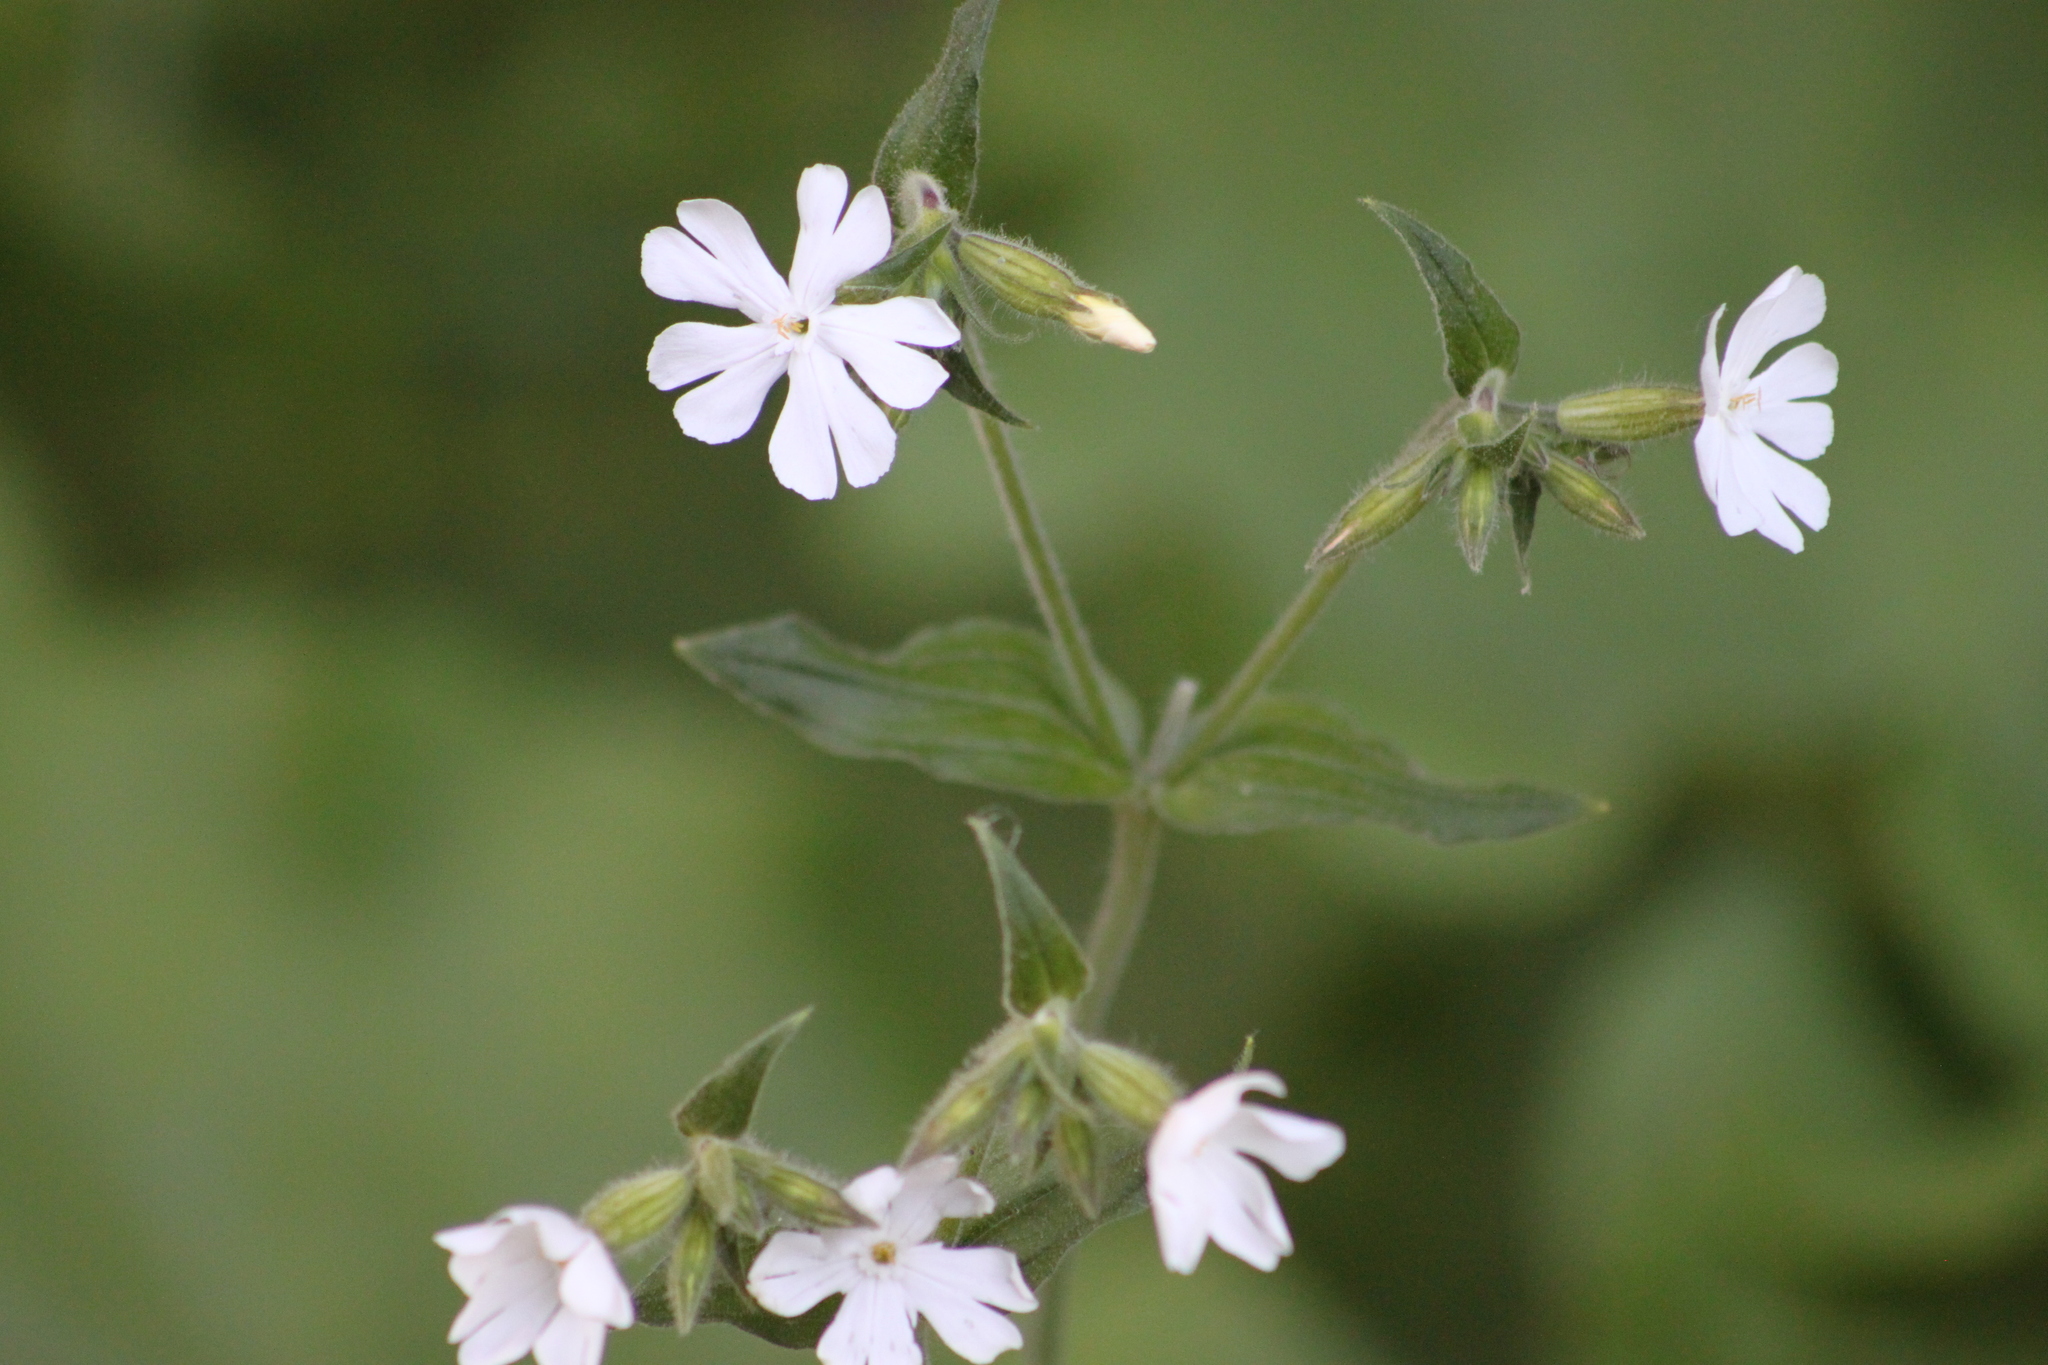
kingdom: Plantae
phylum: Tracheophyta
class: Magnoliopsida
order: Caryophyllales
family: Caryophyllaceae
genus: Silene
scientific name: Silene latifolia
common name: White campion
